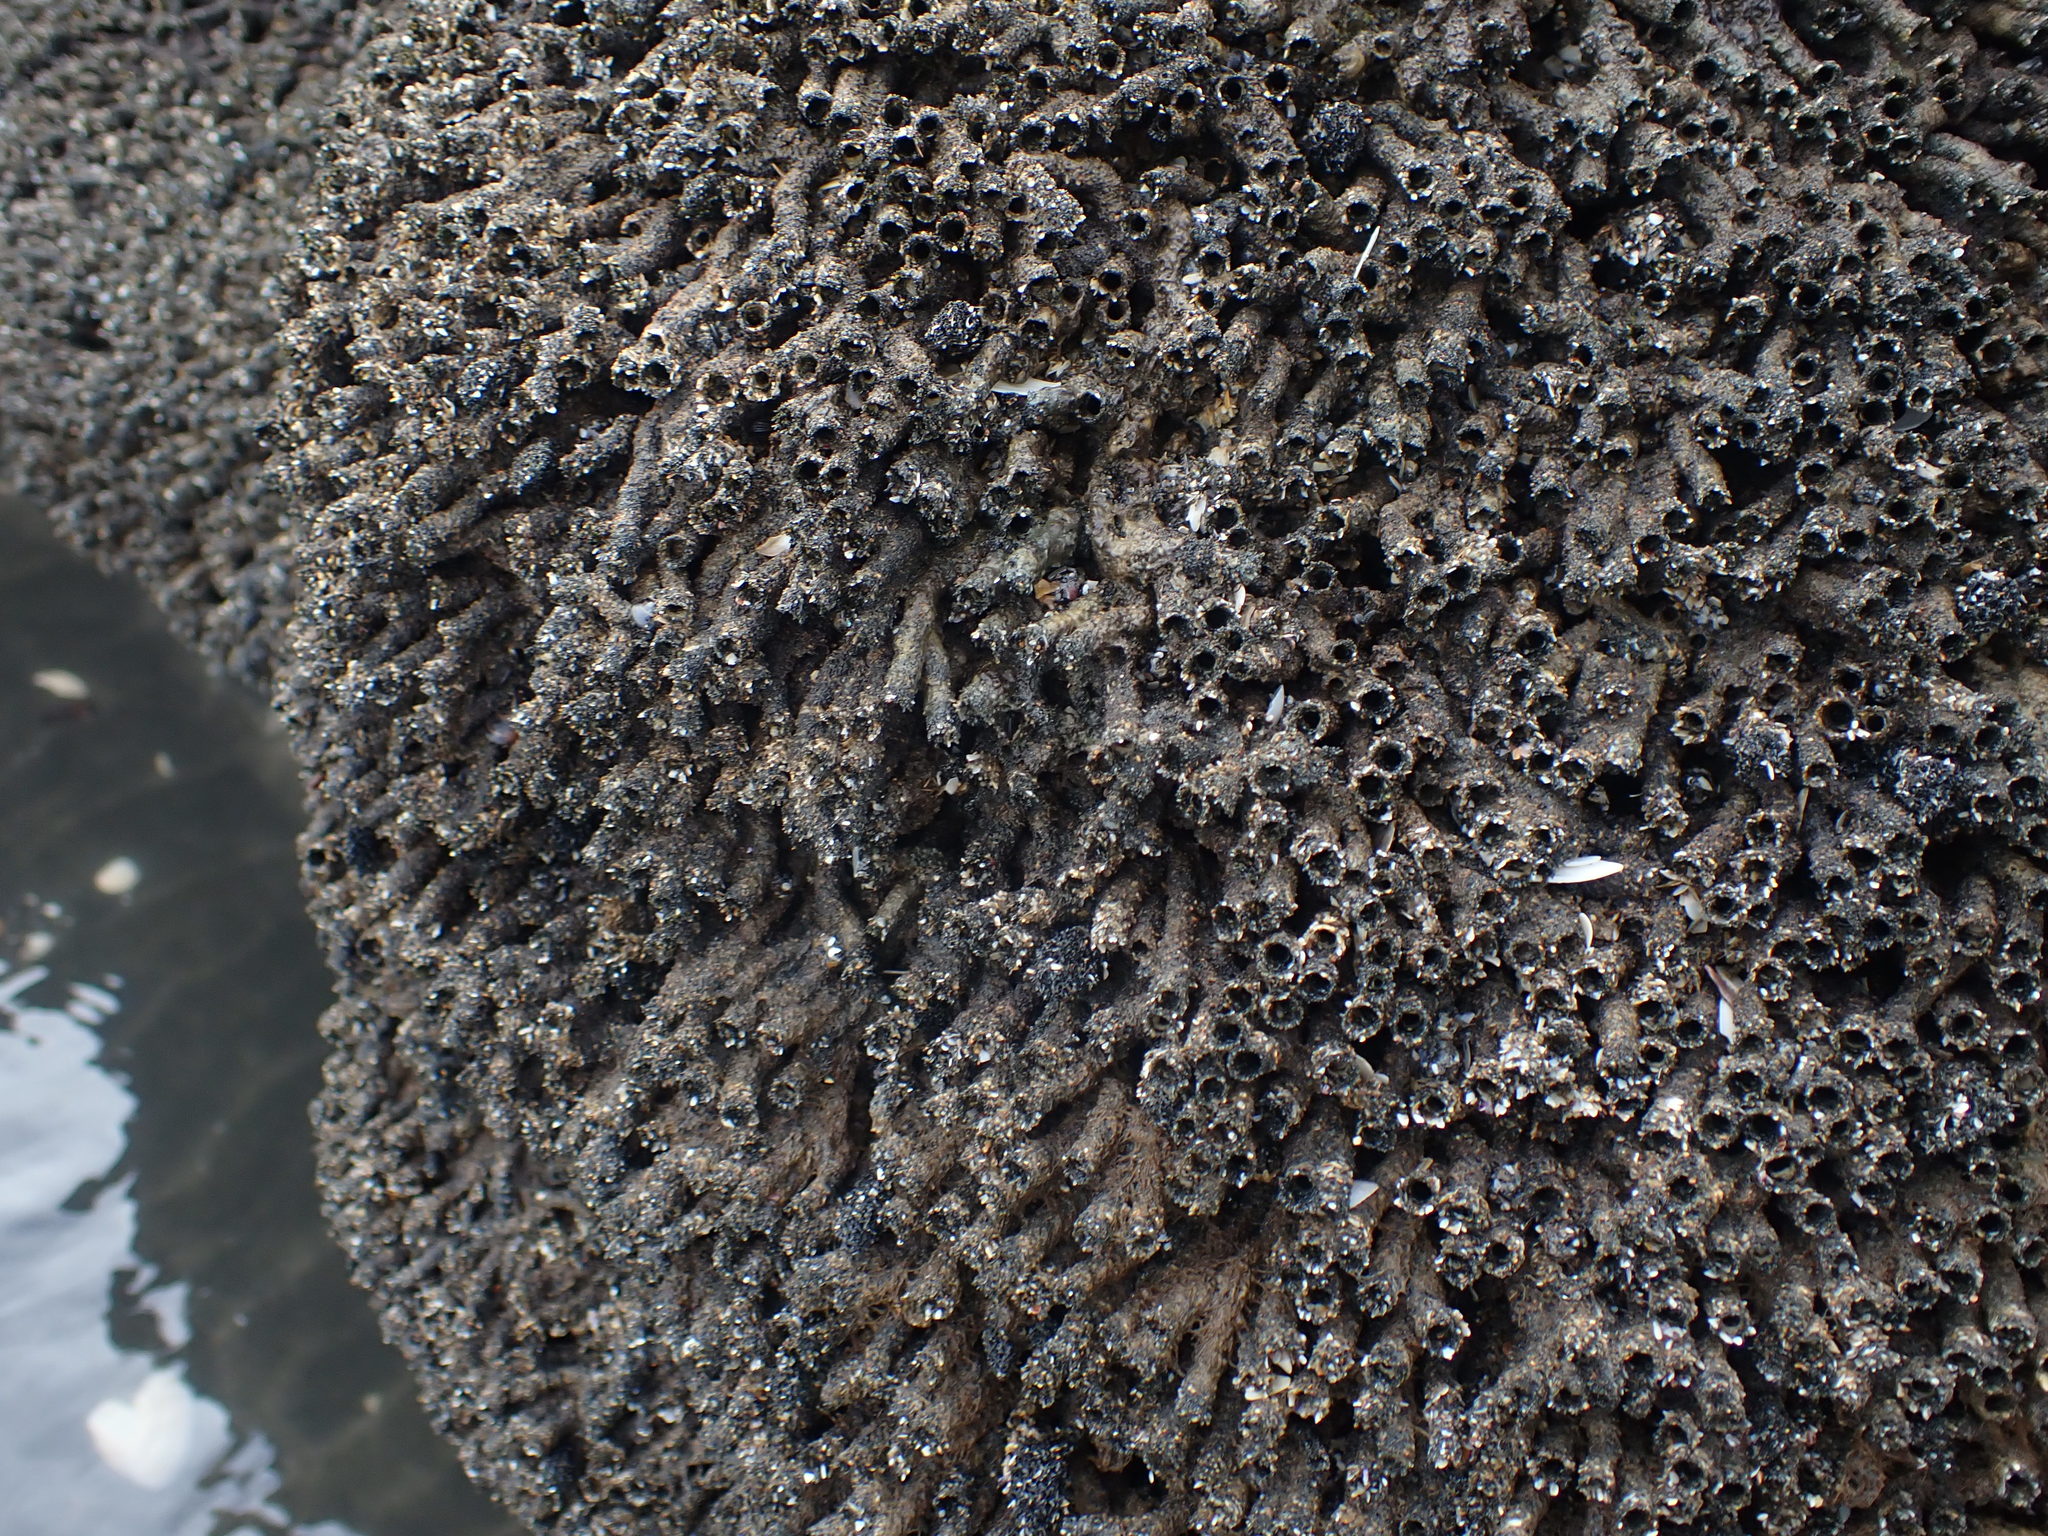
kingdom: Animalia
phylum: Annelida
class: Polychaeta
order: Sabellida
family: Sabellariidae
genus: Neosabellaria
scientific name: Neosabellaria kaiparaensis
